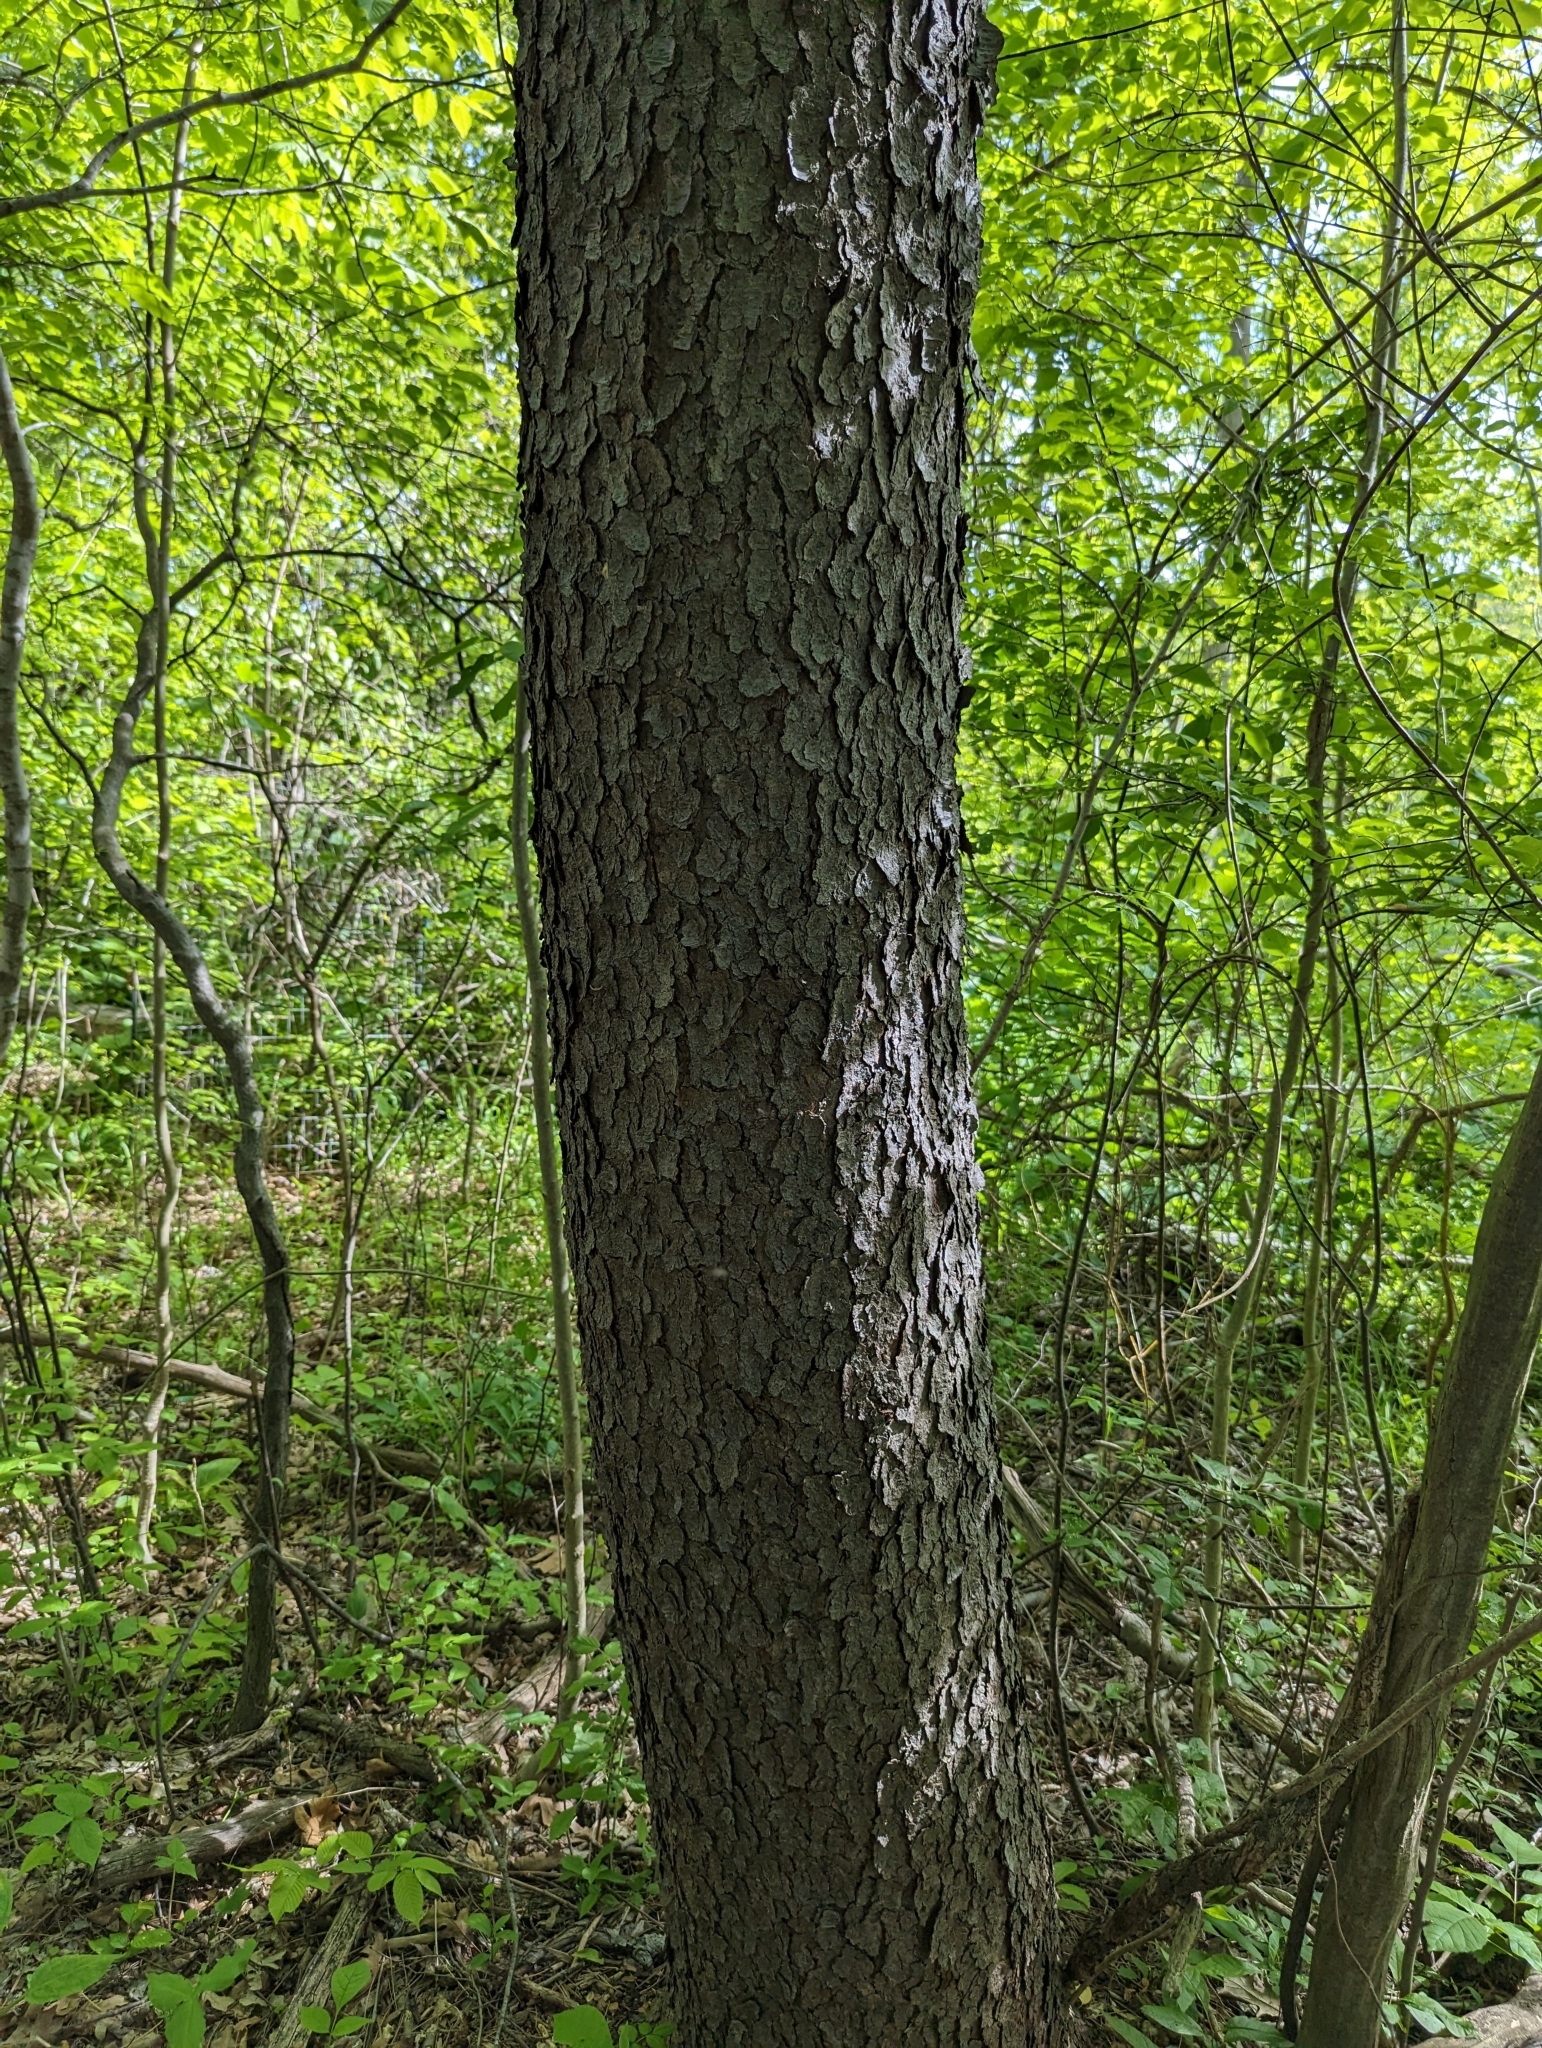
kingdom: Plantae
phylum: Tracheophyta
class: Magnoliopsida
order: Rosales
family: Rosaceae
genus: Prunus
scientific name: Prunus serotina
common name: Black cherry
